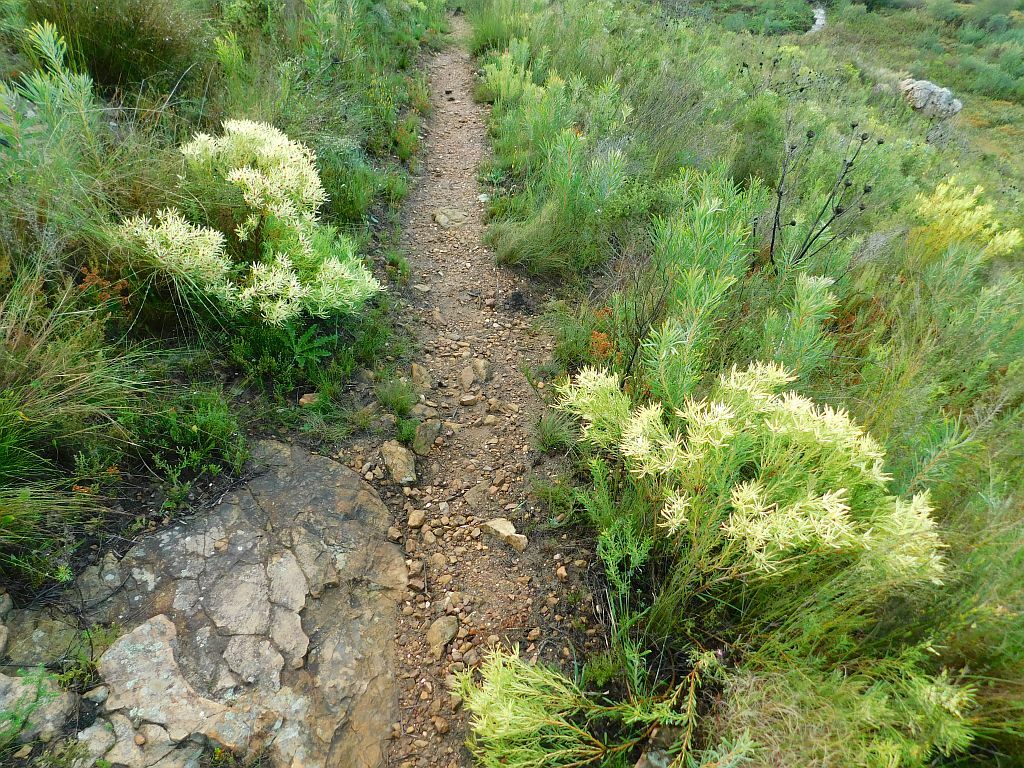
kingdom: Plantae
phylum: Tracheophyta
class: Magnoliopsida
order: Proteales
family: Proteaceae
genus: Leucadendron
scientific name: Leucadendron salignum
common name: Common sunshine conebush
